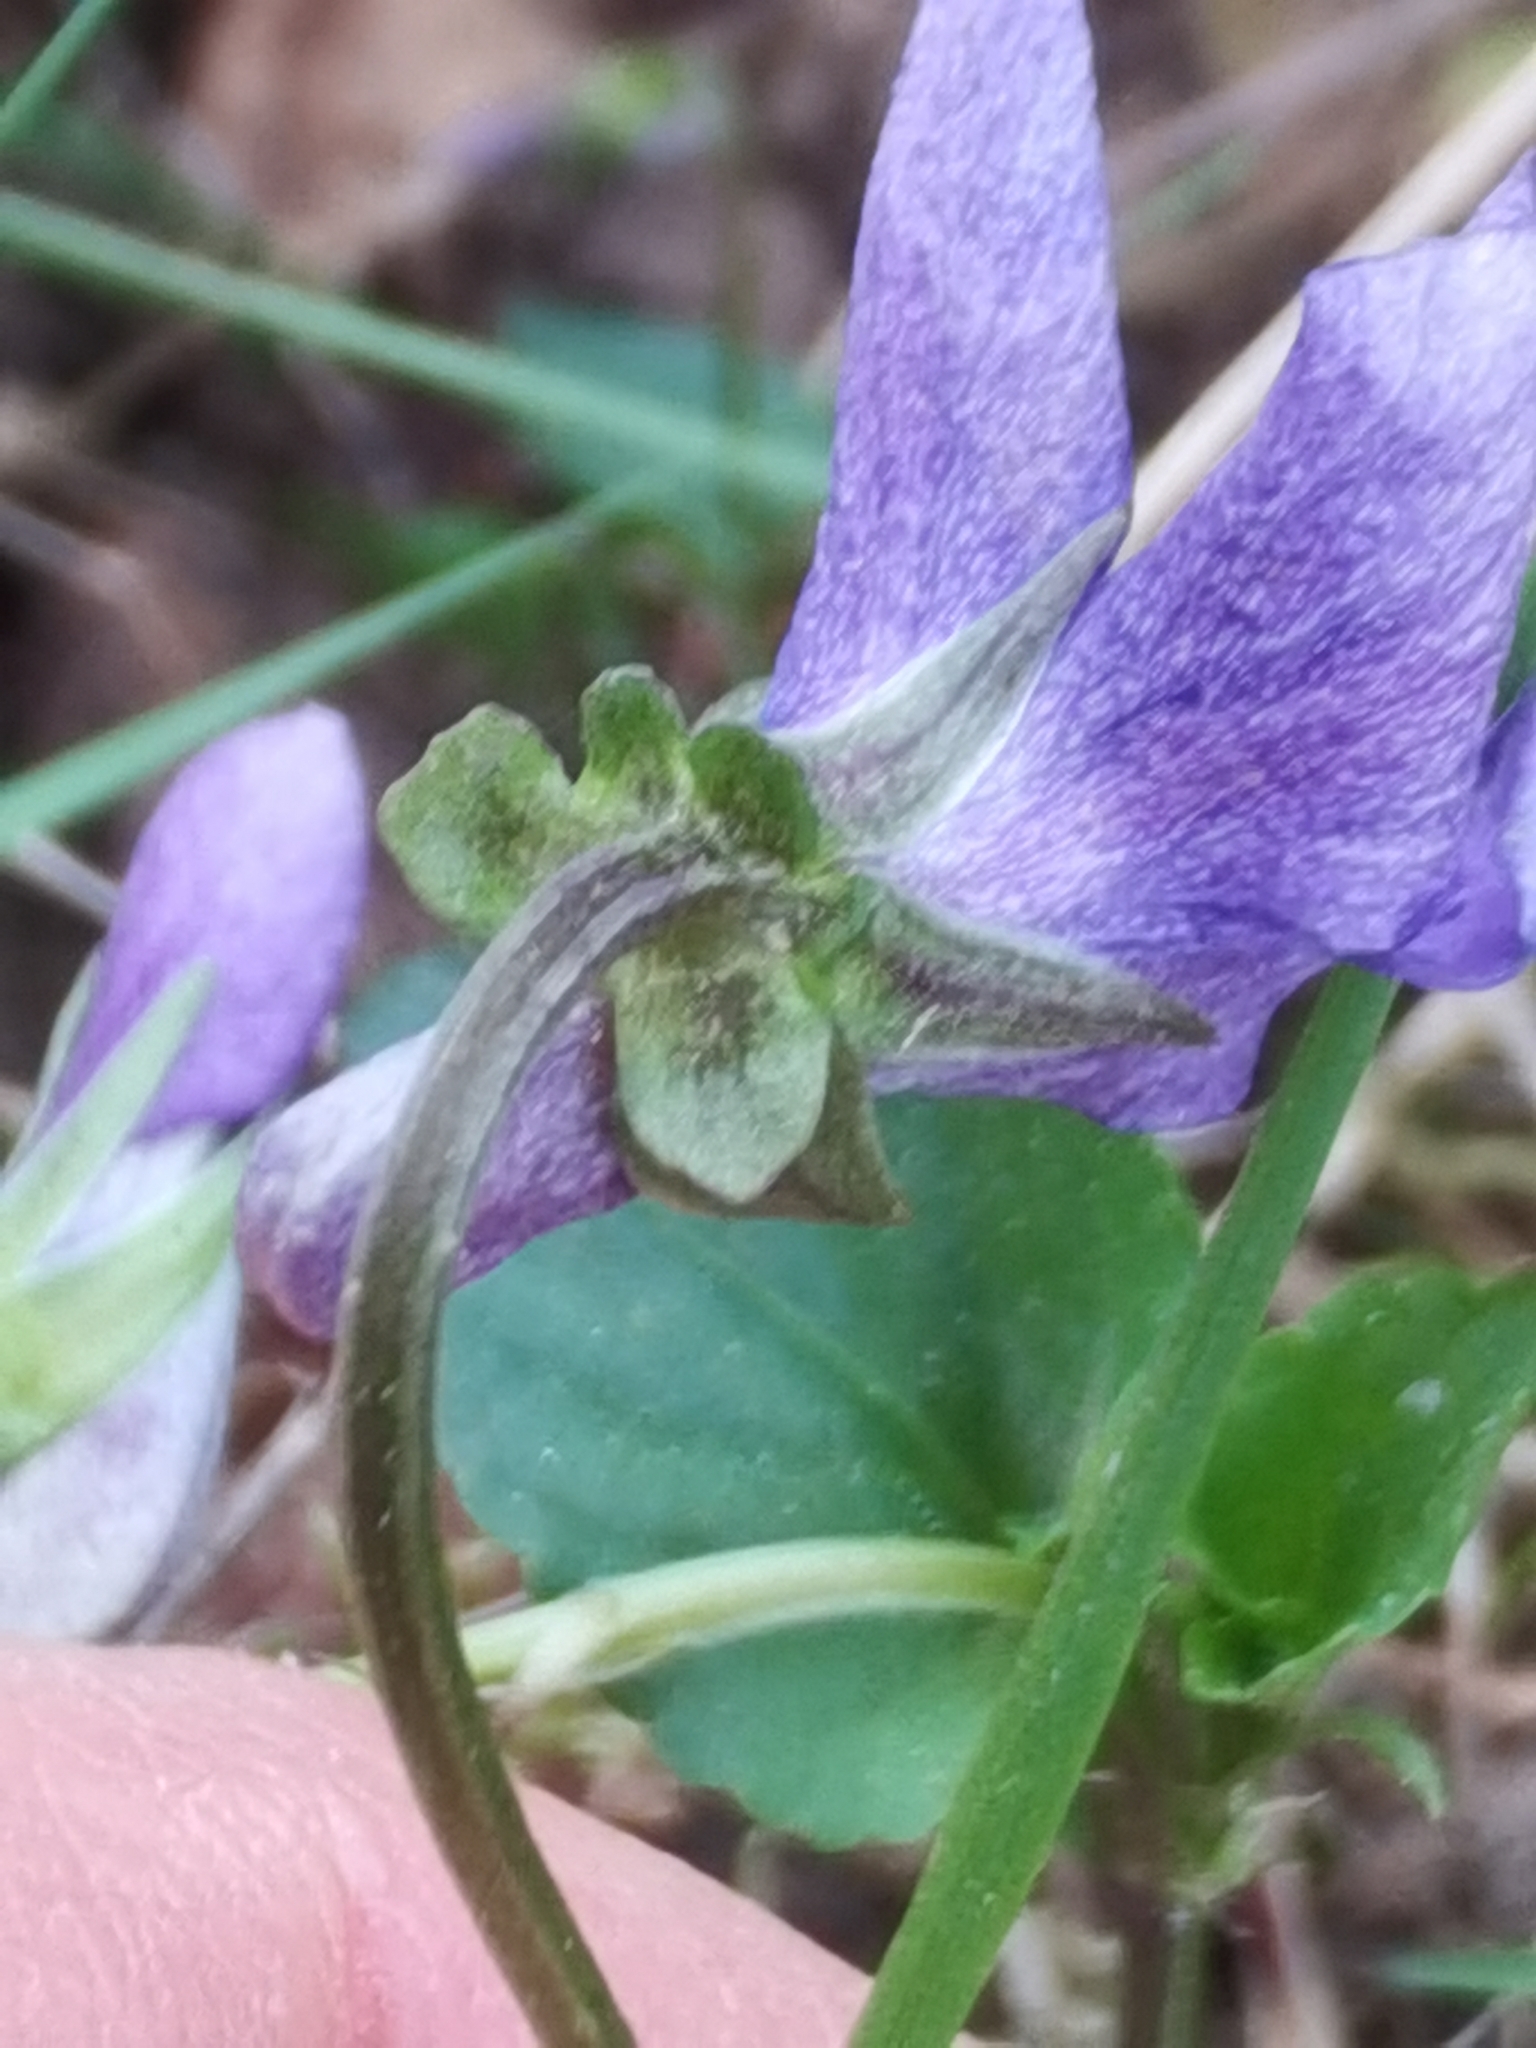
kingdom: Plantae
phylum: Tracheophyta
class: Magnoliopsida
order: Malpighiales
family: Violaceae
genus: Viola
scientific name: Viola riviniana
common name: Common dog-violet
